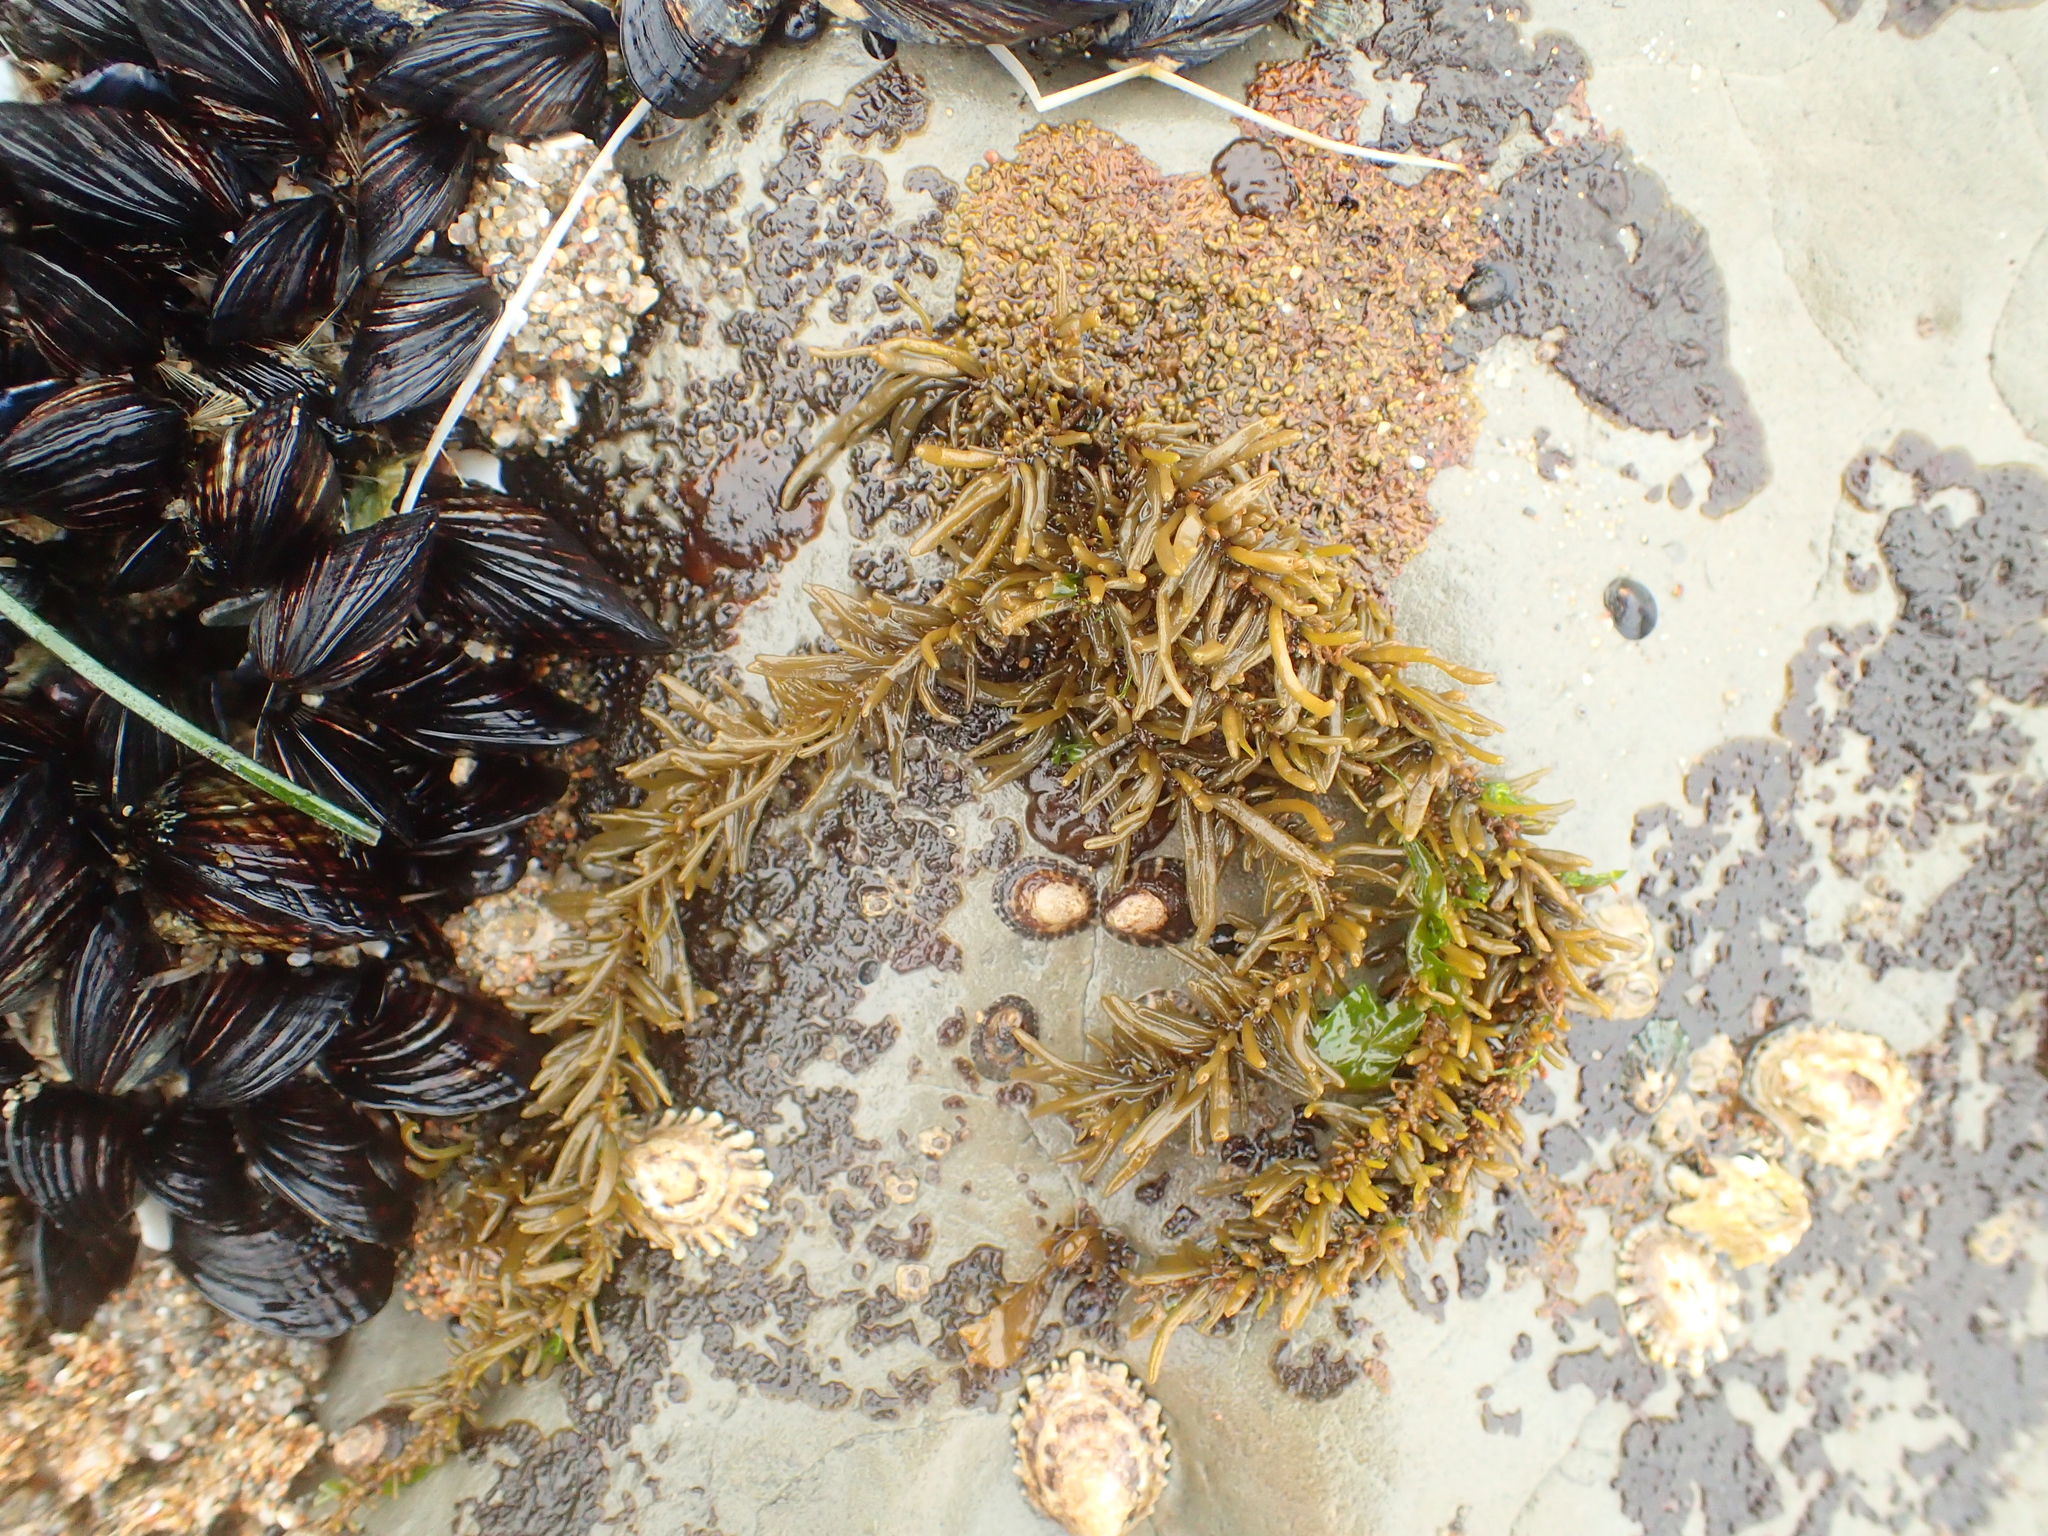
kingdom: Chromista
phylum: Ochrophyta
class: Phaeophyceae
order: Scytosiphonales
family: Scytosiphonaceae
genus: Analipus
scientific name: Analipus japonicus
